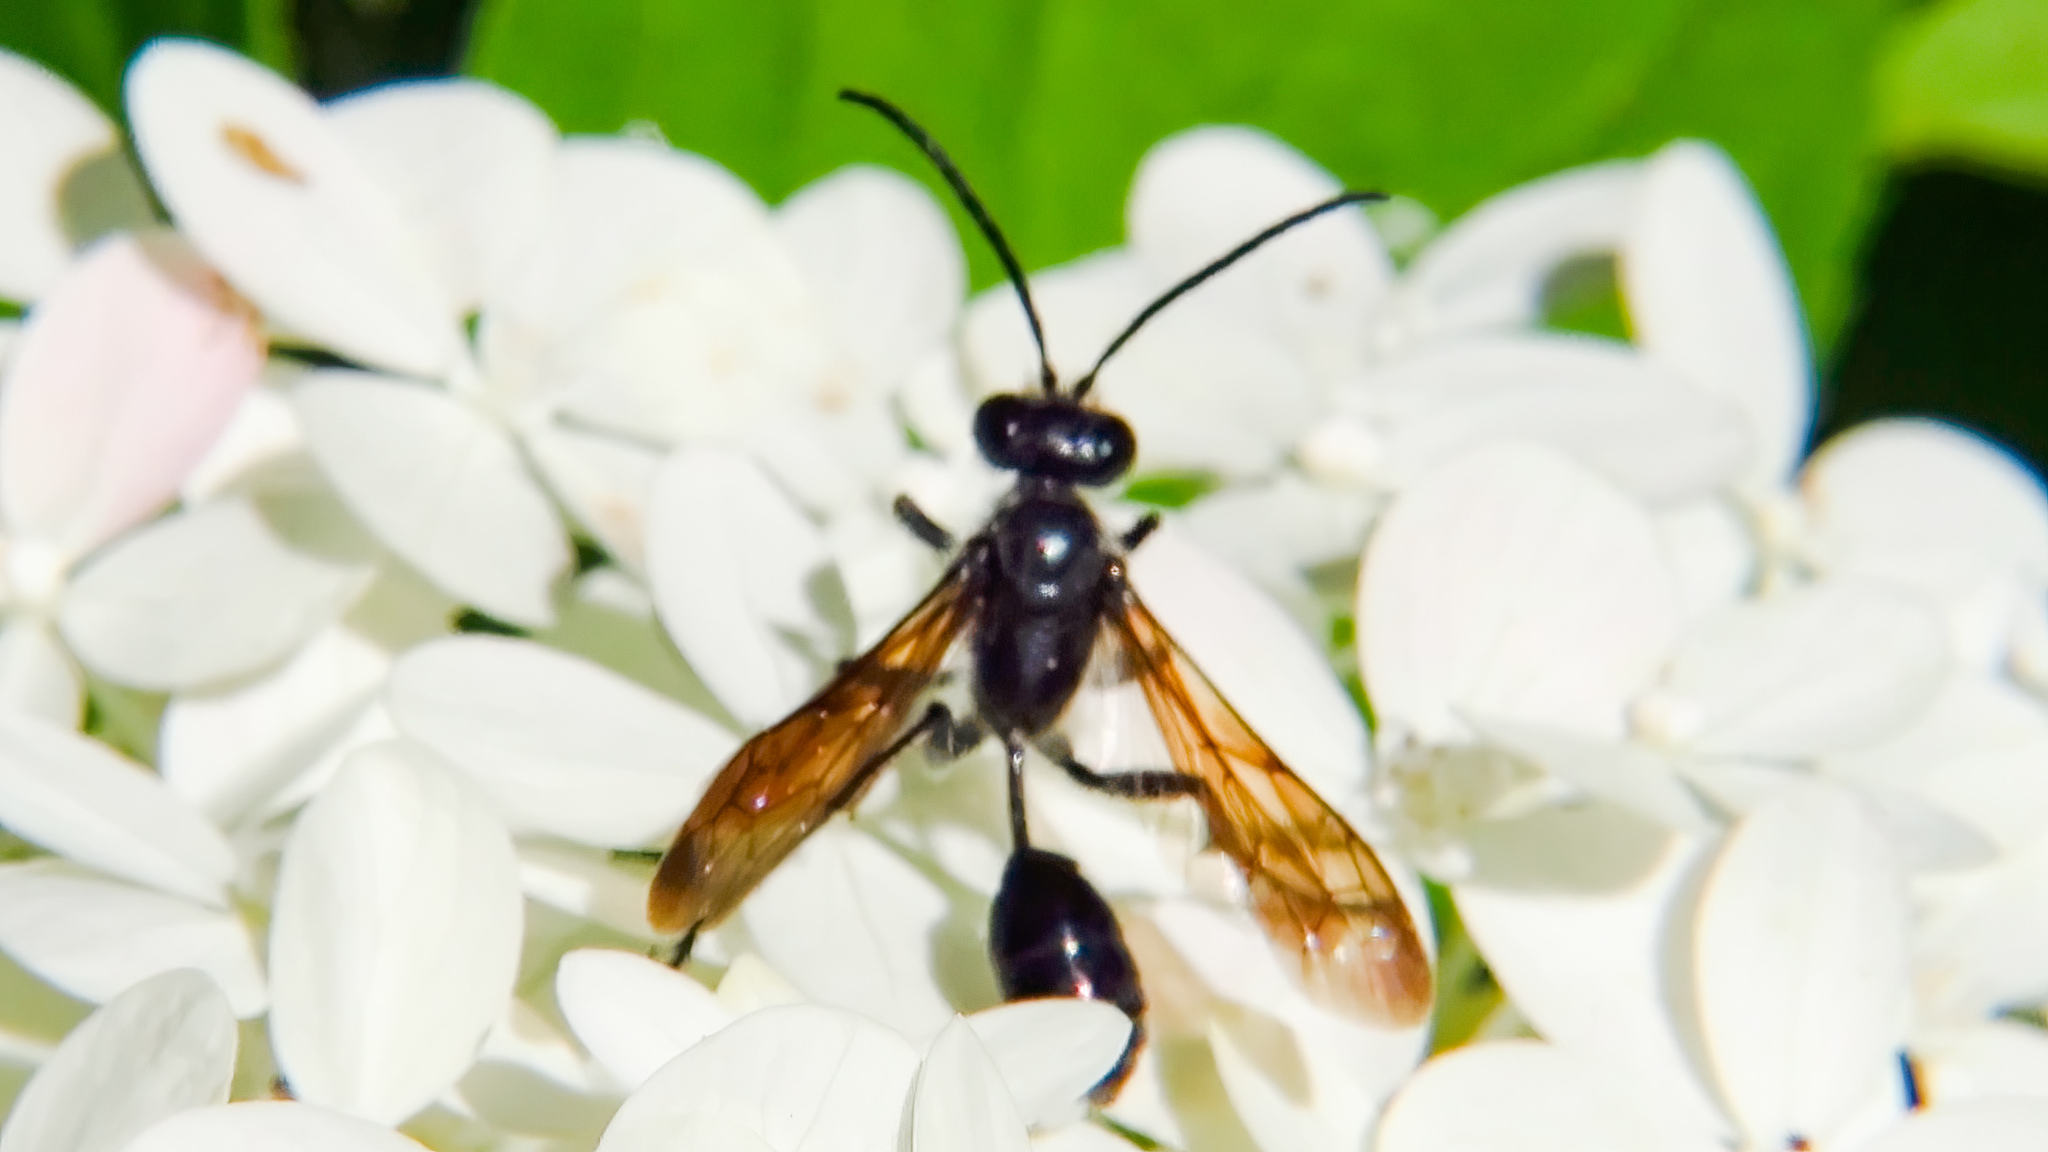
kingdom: Animalia
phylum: Arthropoda
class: Insecta
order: Hymenoptera
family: Sphecidae
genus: Isodontia
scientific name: Isodontia mexicana
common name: Mud dauber
